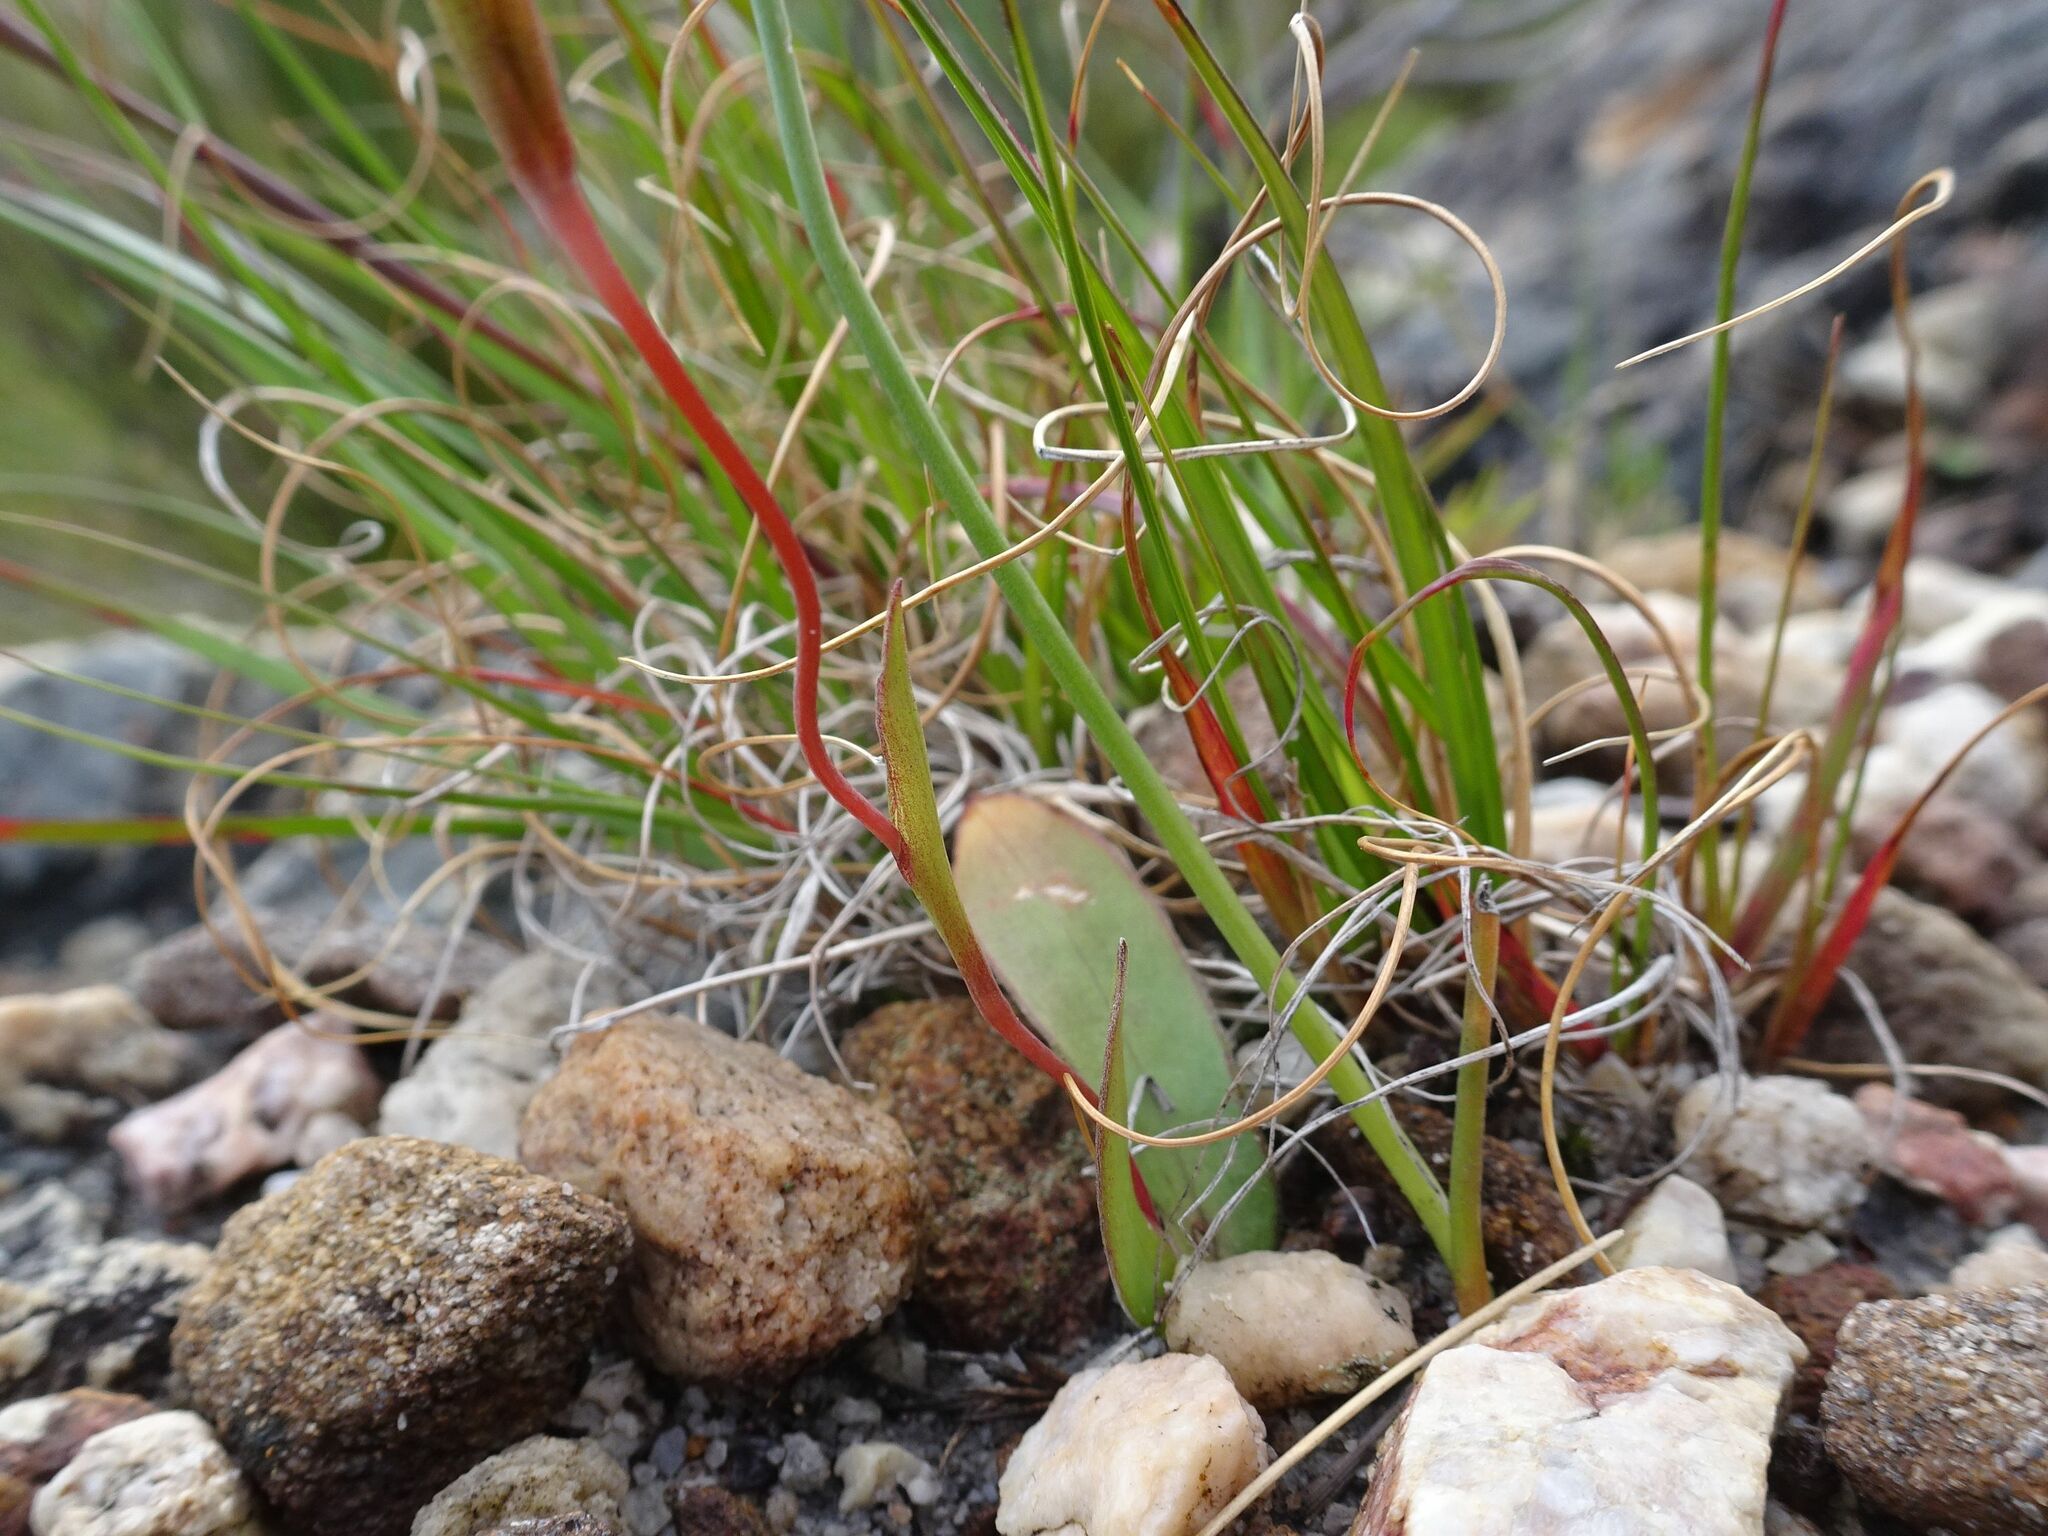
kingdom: Plantae
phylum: Tracheophyta
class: Liliopsida
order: Asparagales
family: Iridaceae
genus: Geissorhiza
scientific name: Geissorhiza ovata
